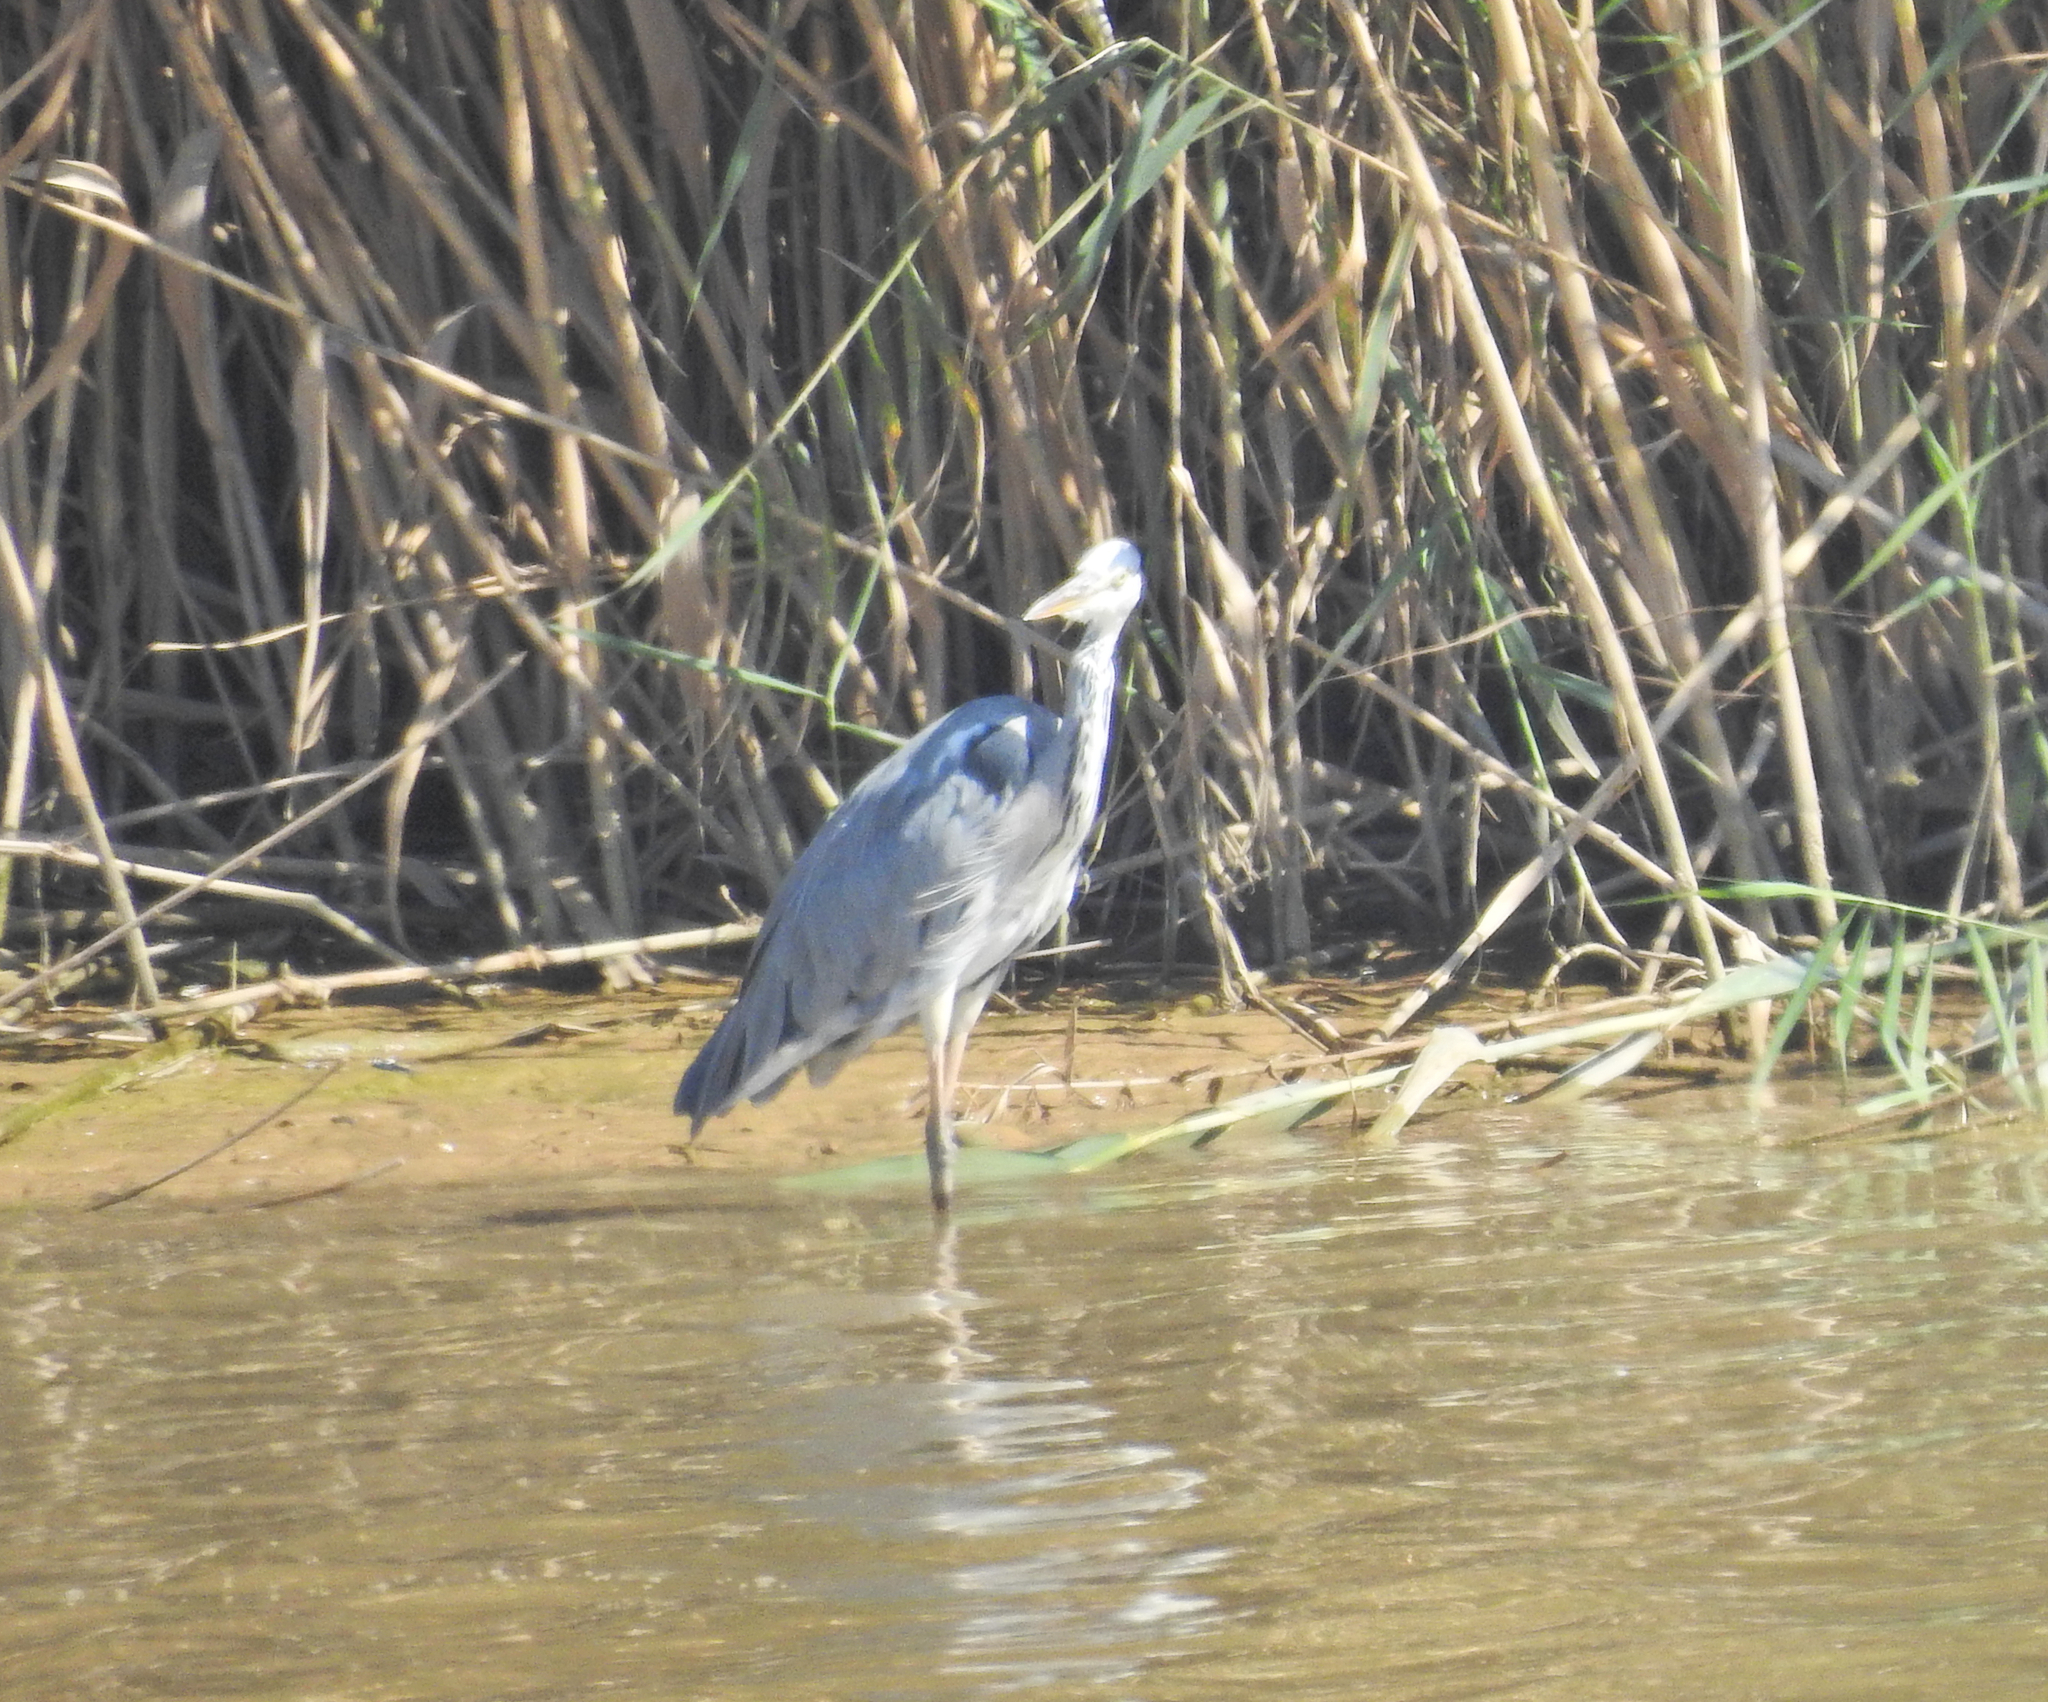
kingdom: Animalia
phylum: Chordata
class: Aves
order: Pelecaniformes
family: Ardeidae
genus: Ardea
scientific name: Ardea cinerea
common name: Grey heron
